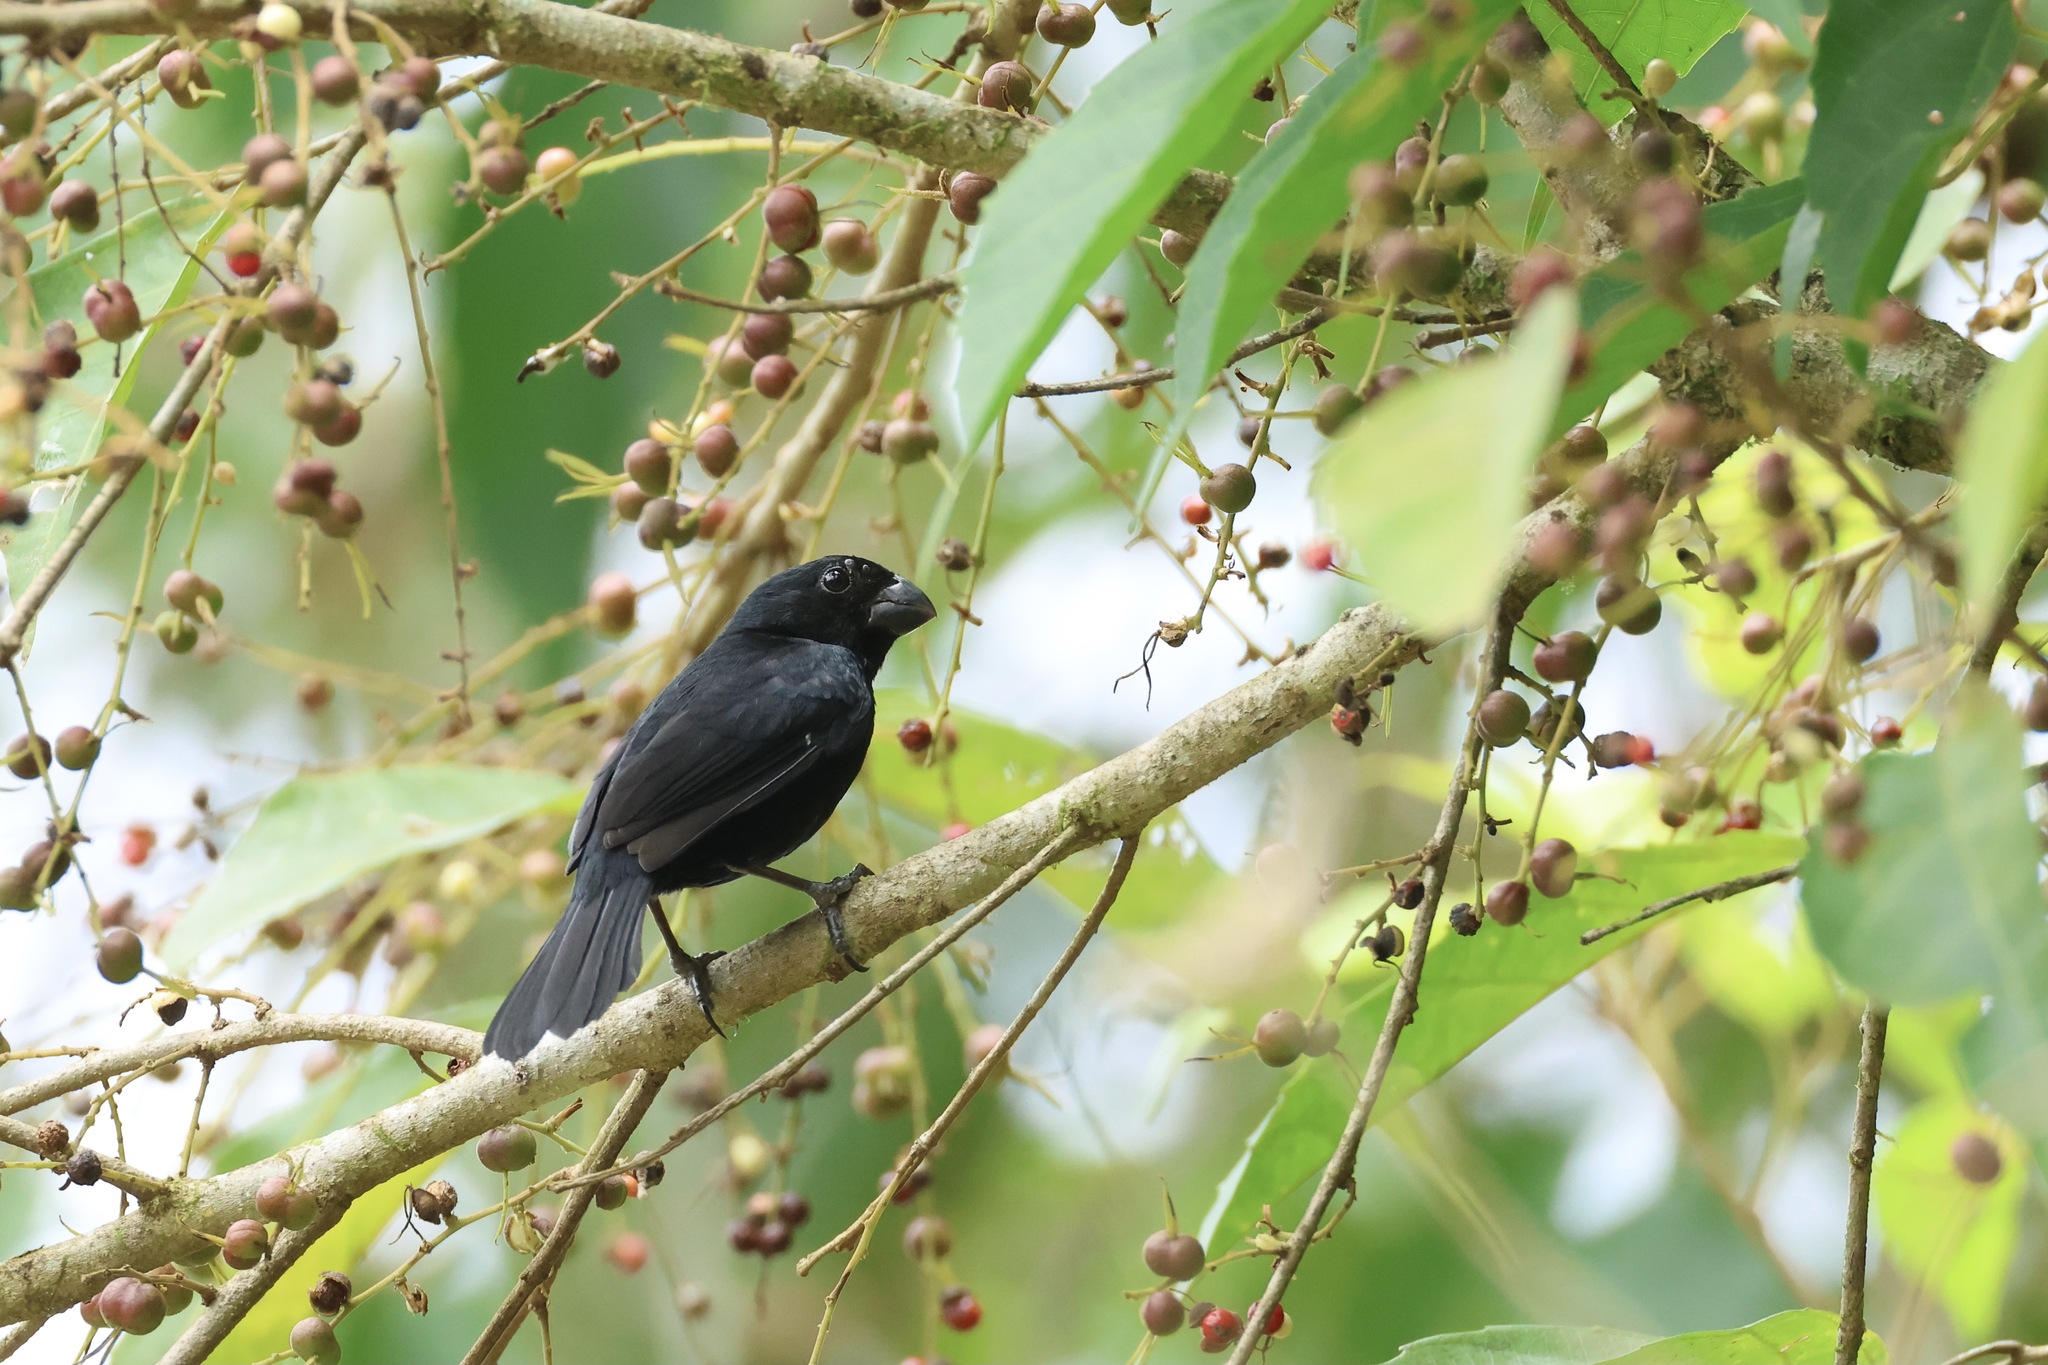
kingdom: Animalia
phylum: Chordata
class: Aves
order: Passeriformes
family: Thraupidae
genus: Sporophila
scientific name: Sporophila corvina
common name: Variable seedeater
